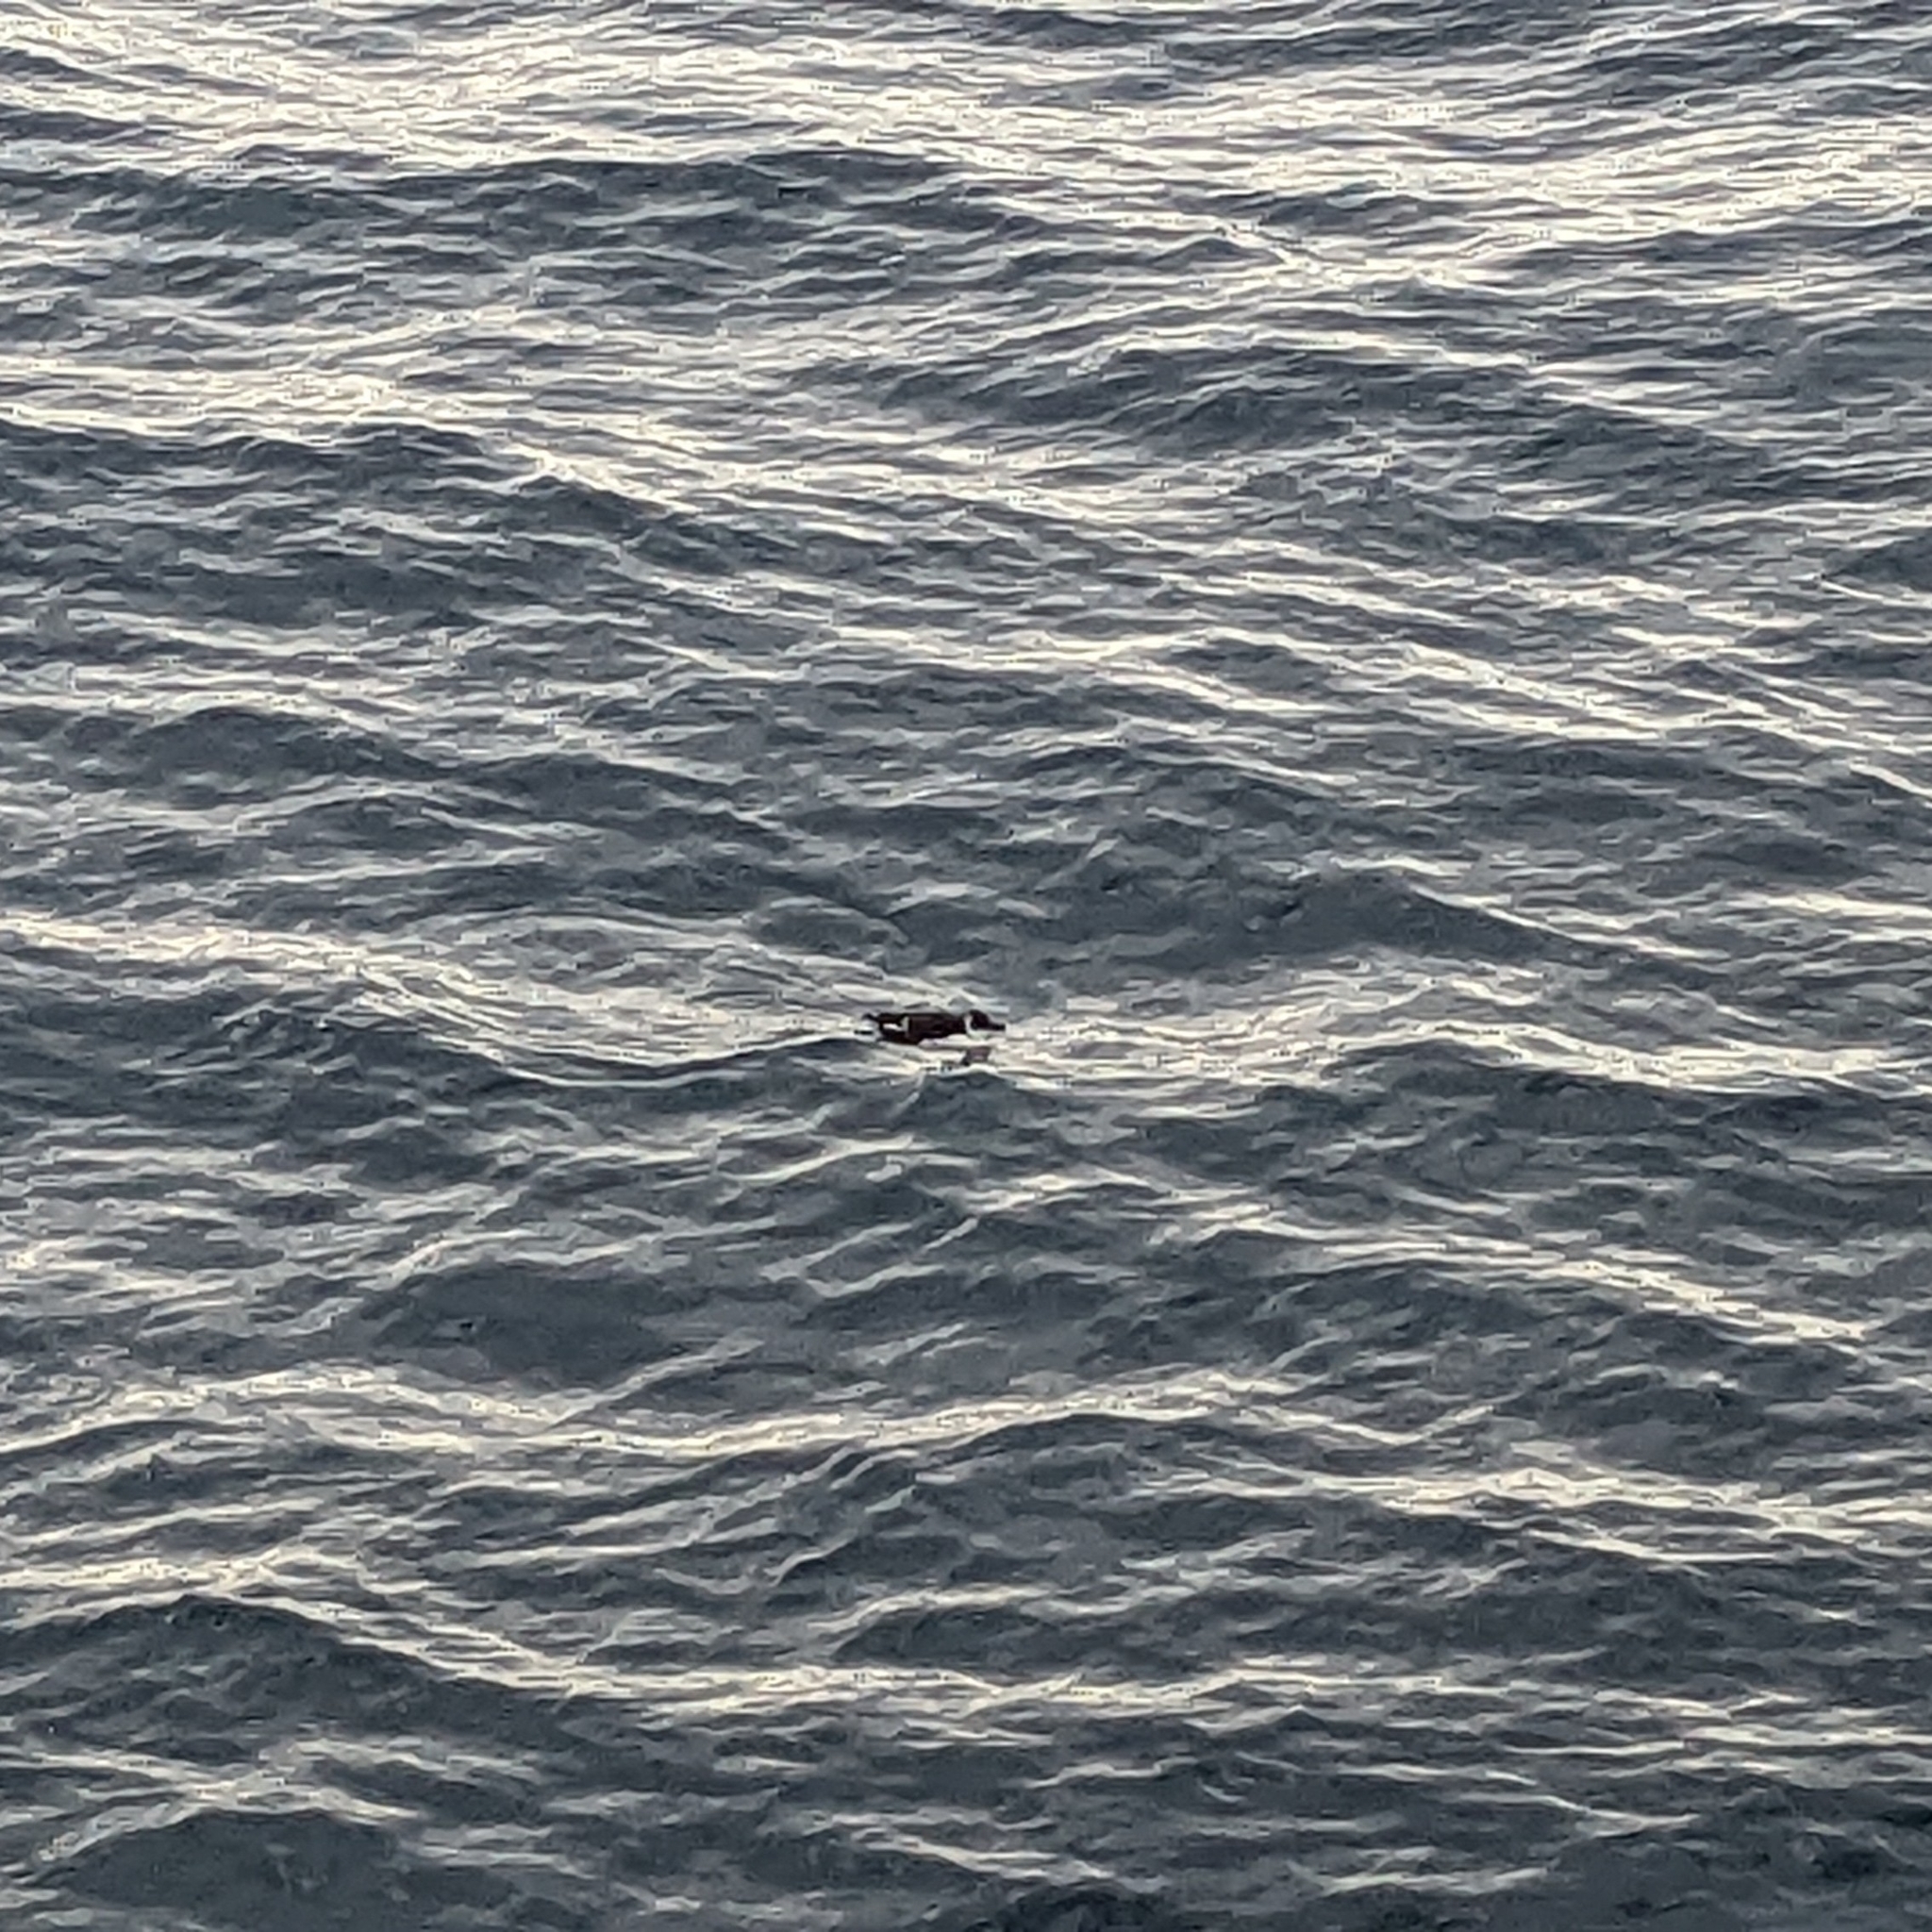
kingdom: Animalia
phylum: Chordata
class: Aves
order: Charadriiformes
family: Alcidae
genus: Alca
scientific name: Alca torda
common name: Razorbill
